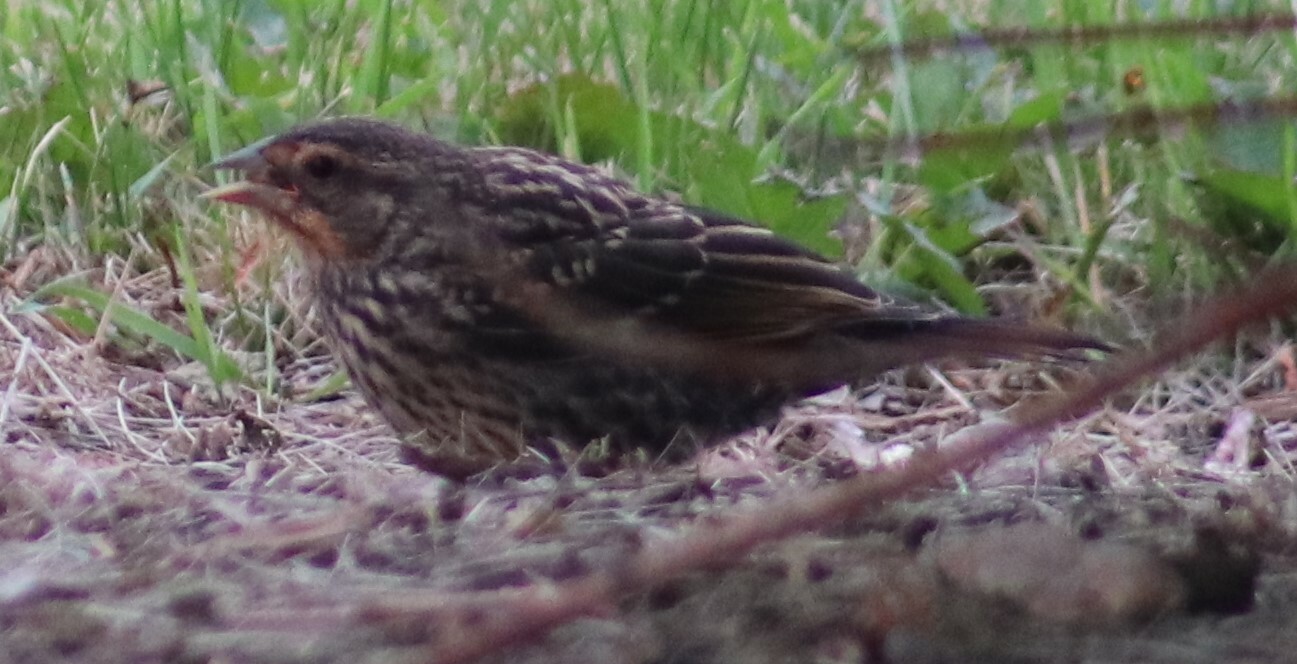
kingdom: Animalia
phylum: Chordata
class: Aves
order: Passeriformes
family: Icteridae
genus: Agelaius
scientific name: Agelaius phoeniceus
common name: Red-winged blackbird
